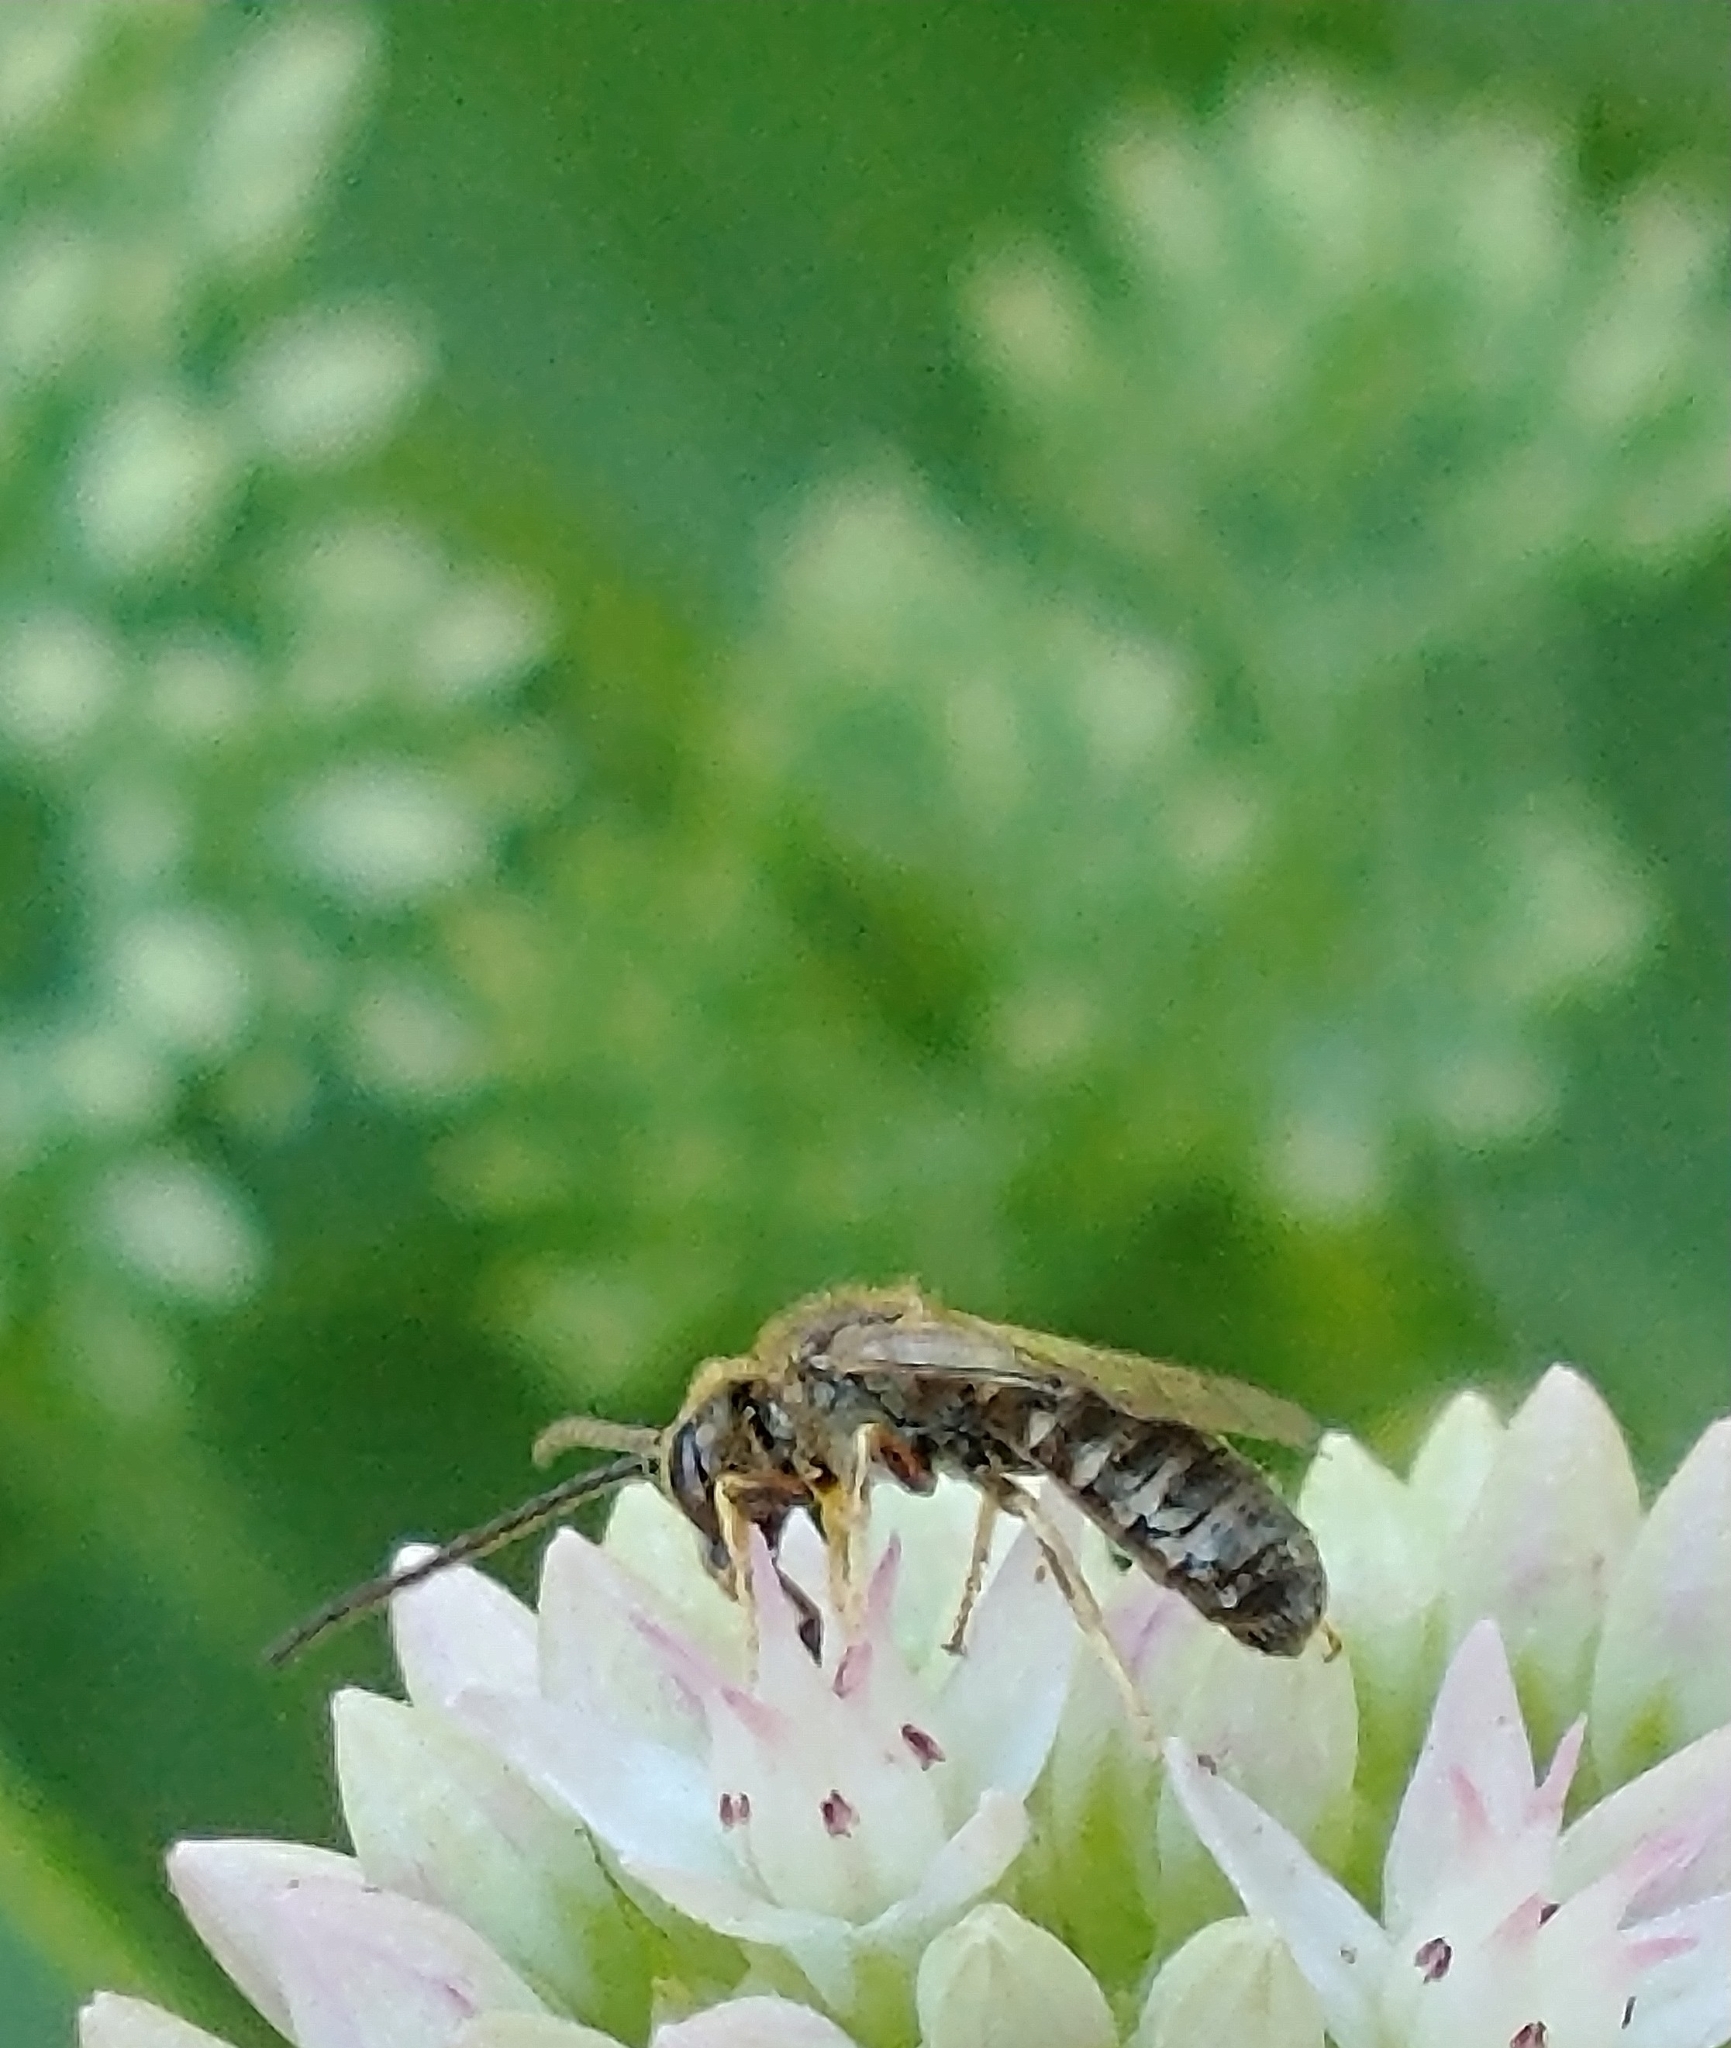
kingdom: Animalia
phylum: Arthropoda
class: Insecta
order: Hymenoptera
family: Halictidae
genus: Halictus
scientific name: Halictus
